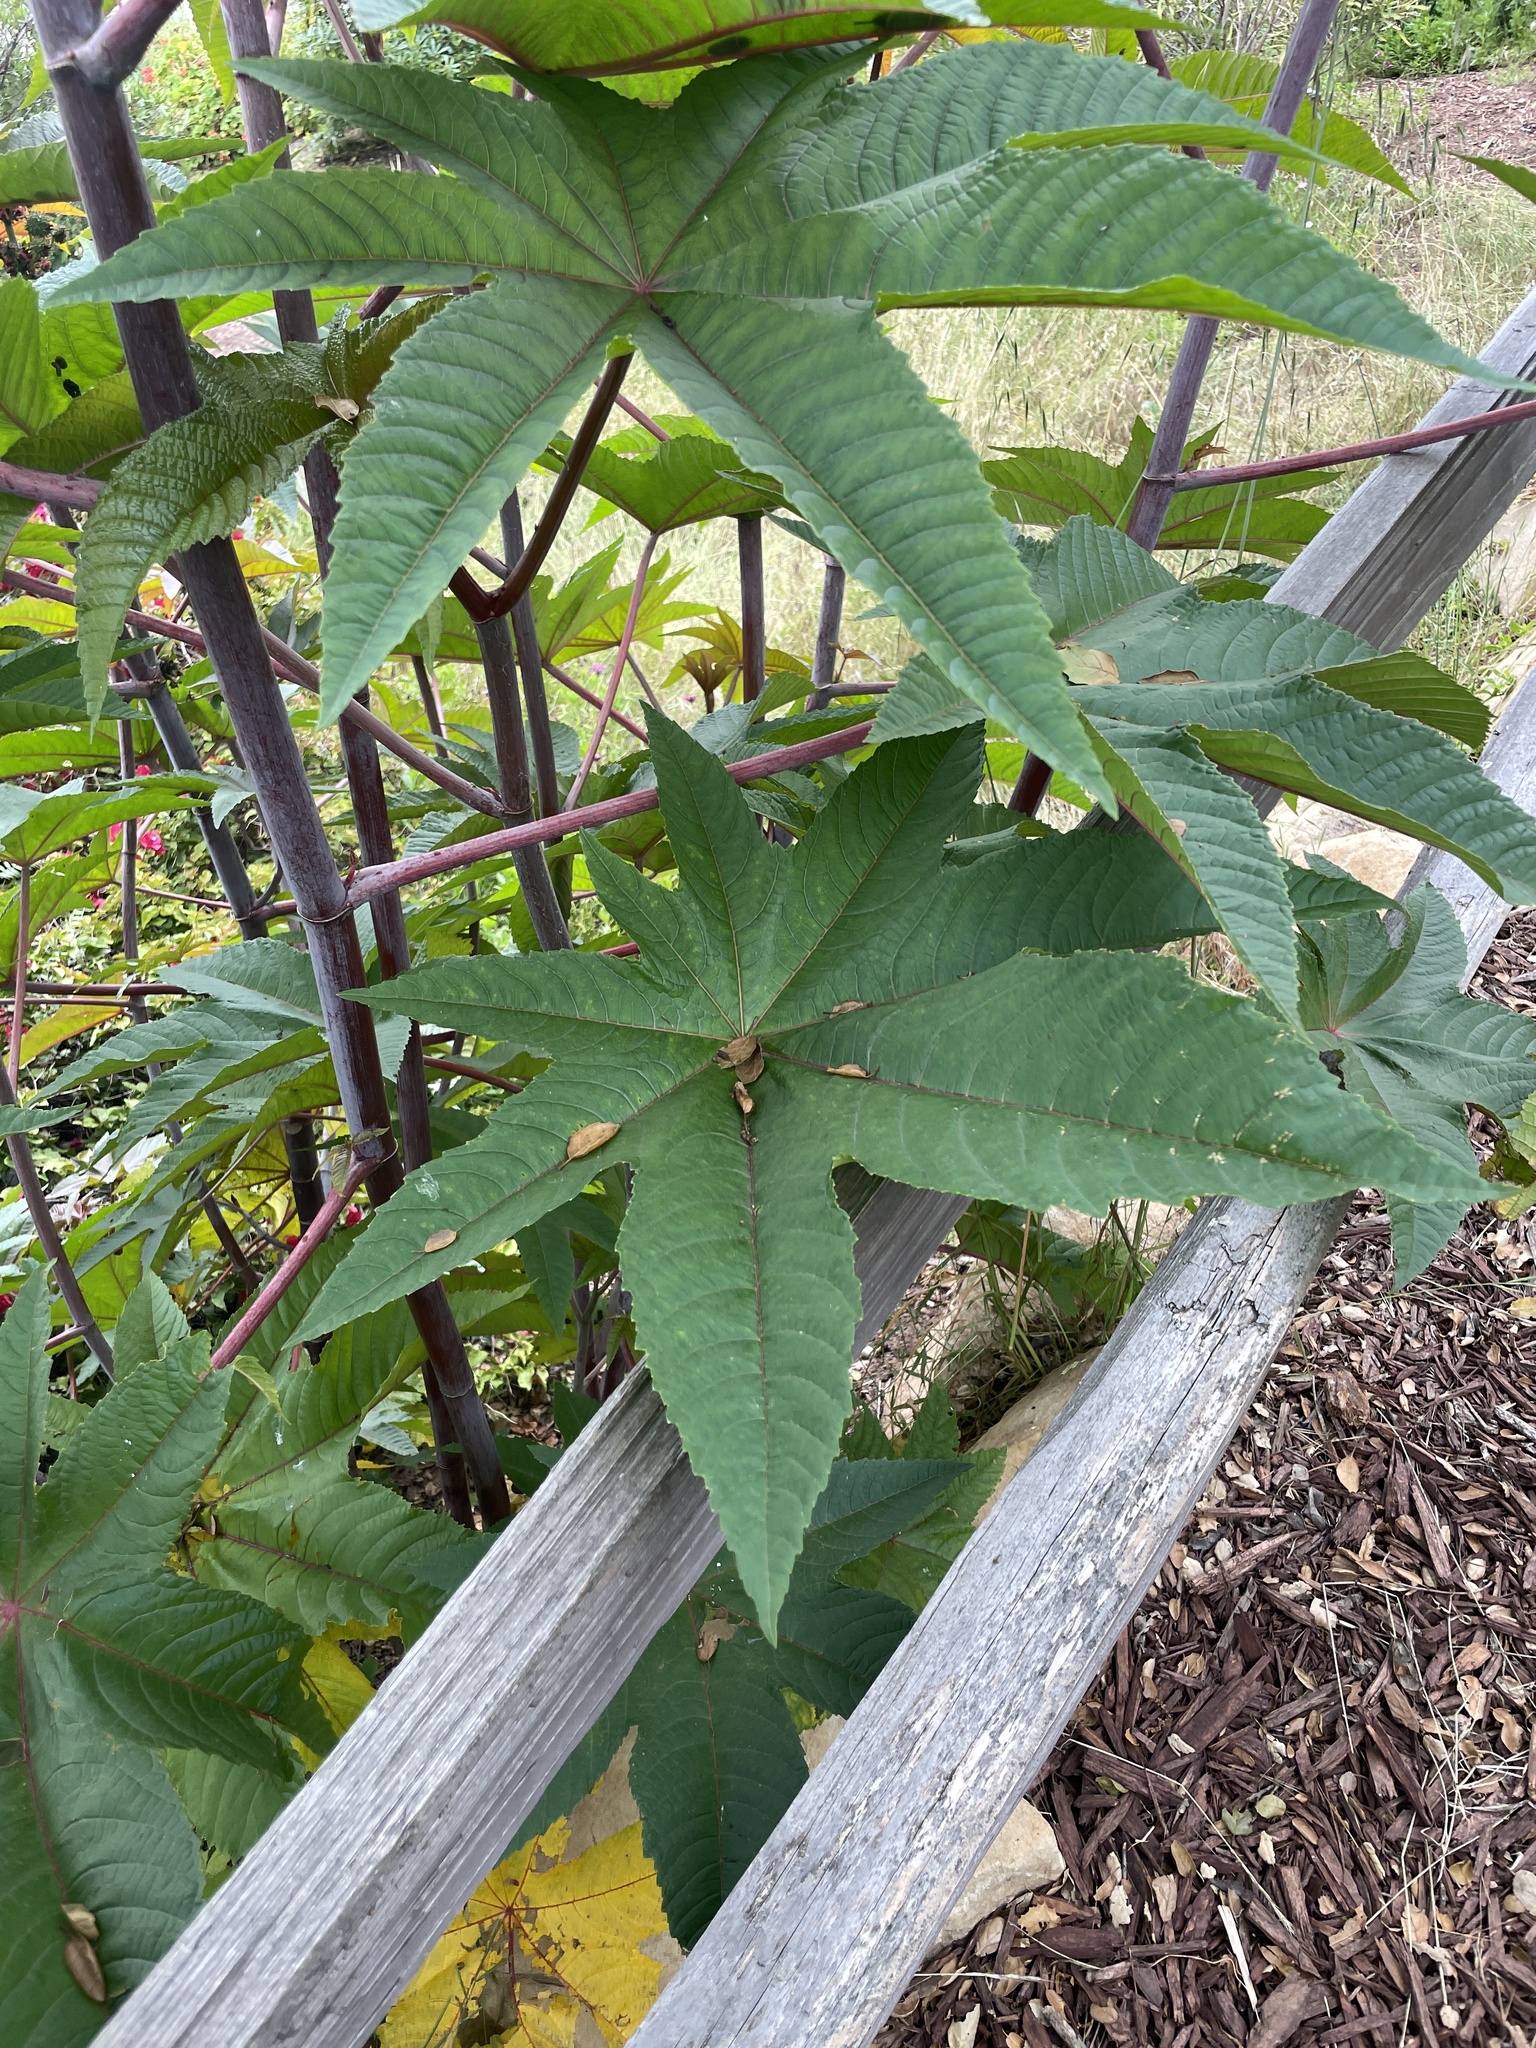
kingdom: Plantae
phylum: Tracheophyta
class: Magnoliopsida
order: Malpighiales
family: Euphorbiaceae
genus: Ricinus
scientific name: Ricinus communis
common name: Castor-oil-plant
